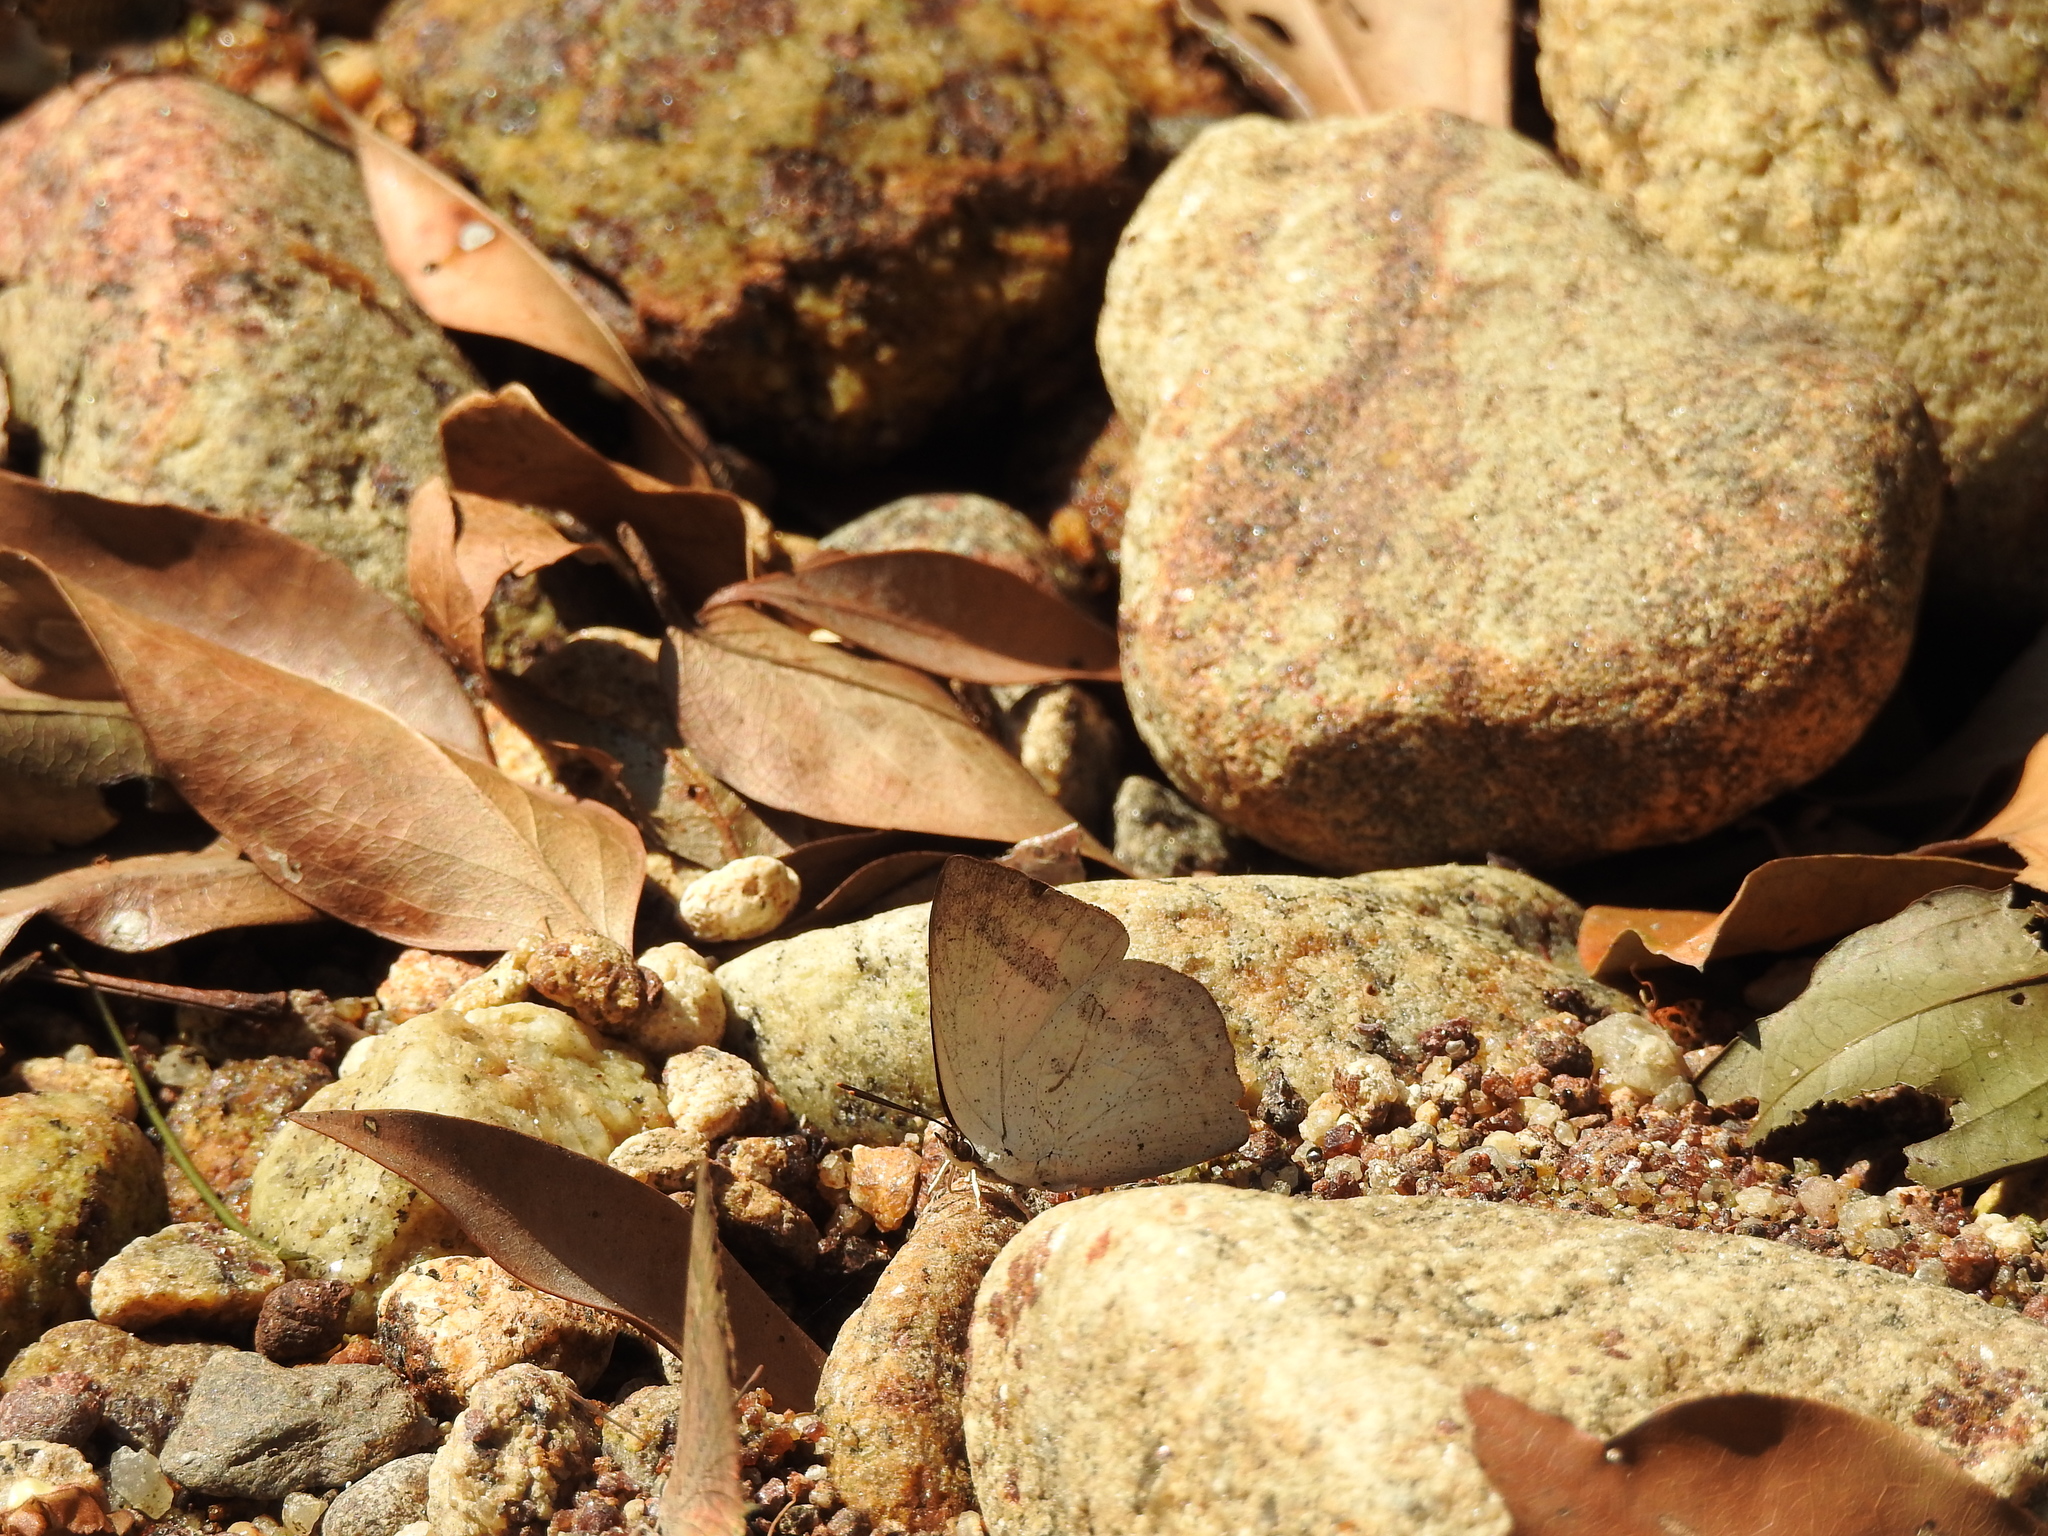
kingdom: Animalia
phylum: Arthropoda
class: Insecta
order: Lepidoptera
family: Lycaenidae
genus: Curetis
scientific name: Curetis siva
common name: Shiva sunbeam
